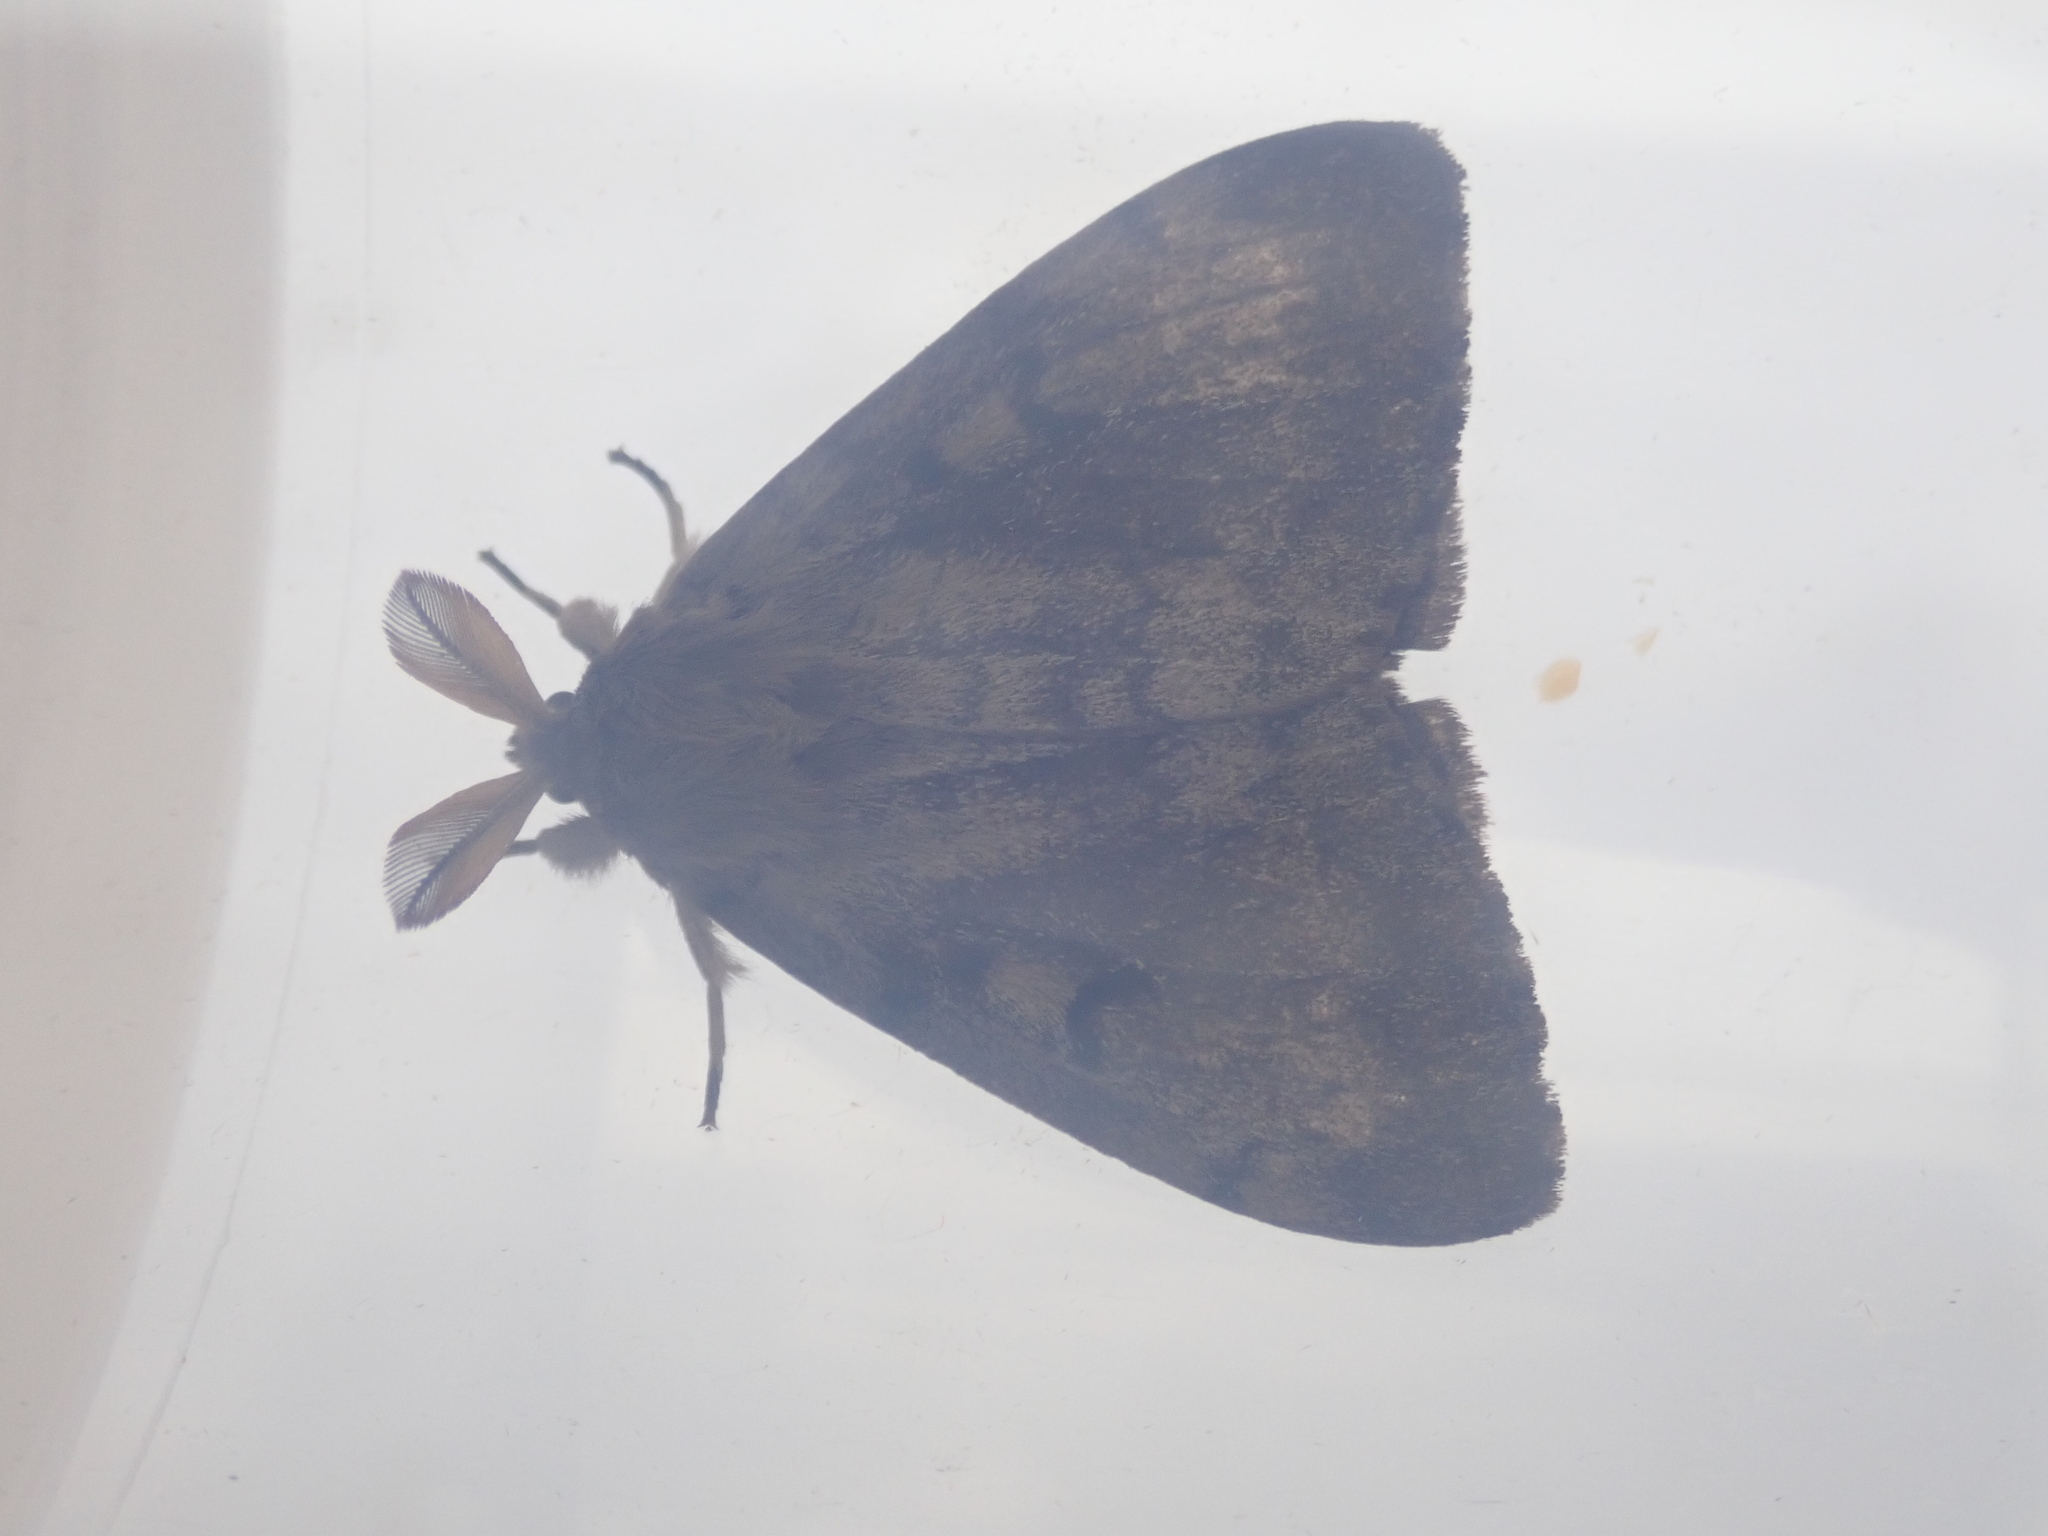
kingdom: Animalia
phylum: Arthropoda
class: Insecta
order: Lepidoptera
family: Erebidae
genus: Lymantria
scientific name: Lymantria dispar
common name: Gypsy moth
